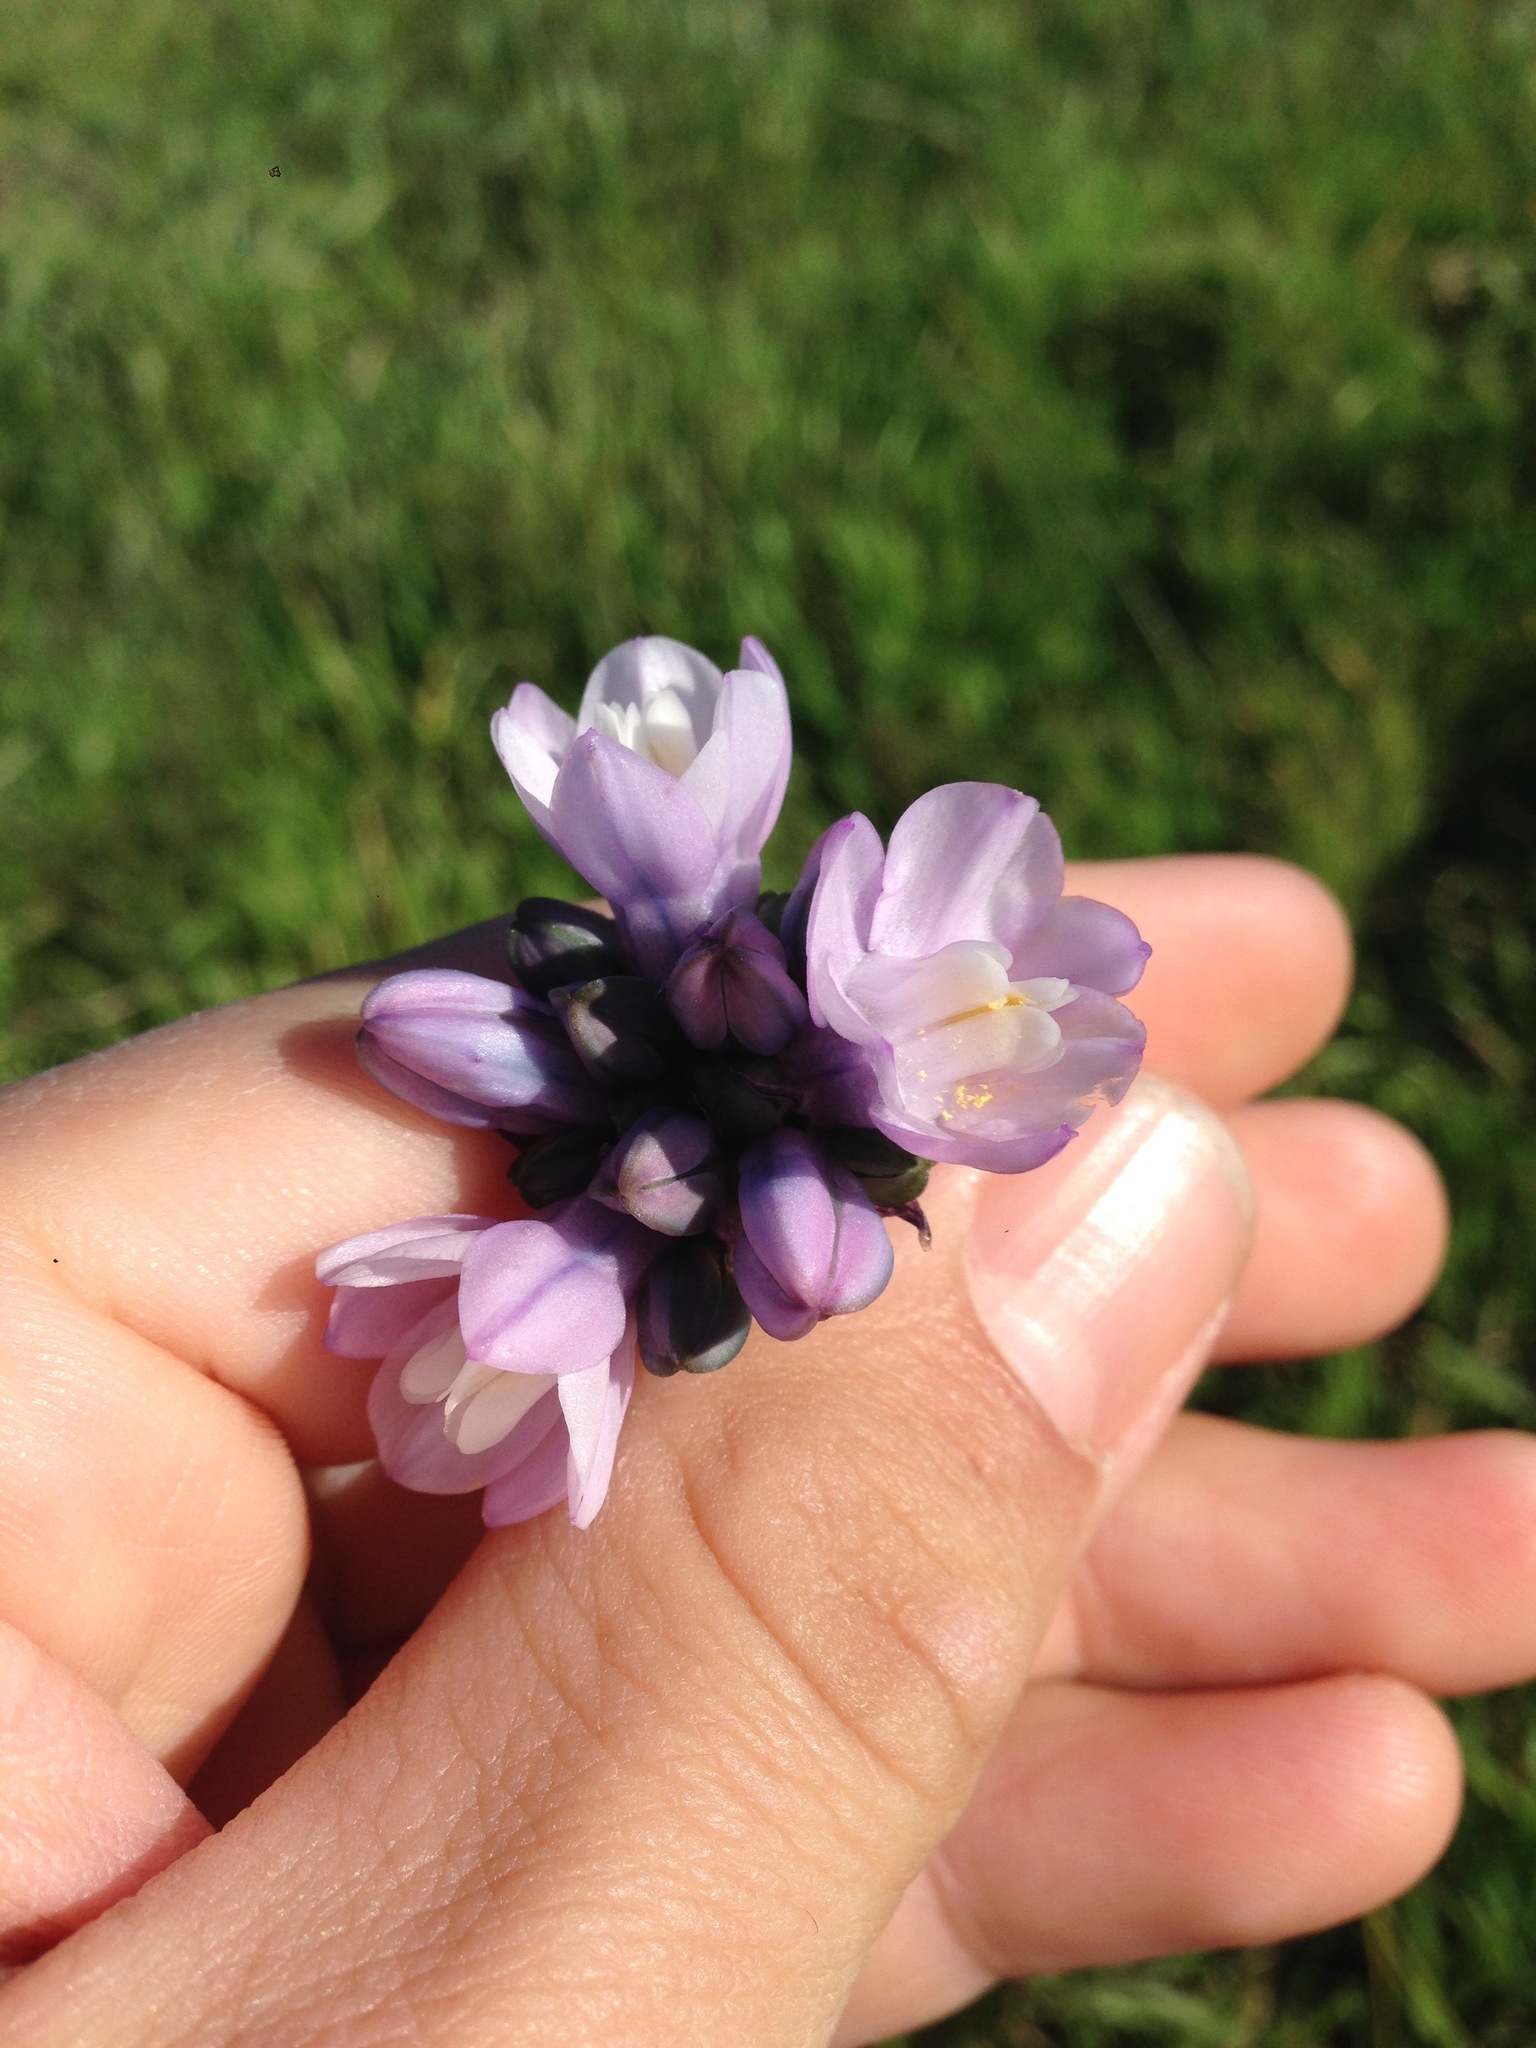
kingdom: Plantae
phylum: Tracheophyta
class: Liliopsida
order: Asparagales
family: Asparagaceae
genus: Dipterostemon
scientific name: Dipterostemon capitatus
